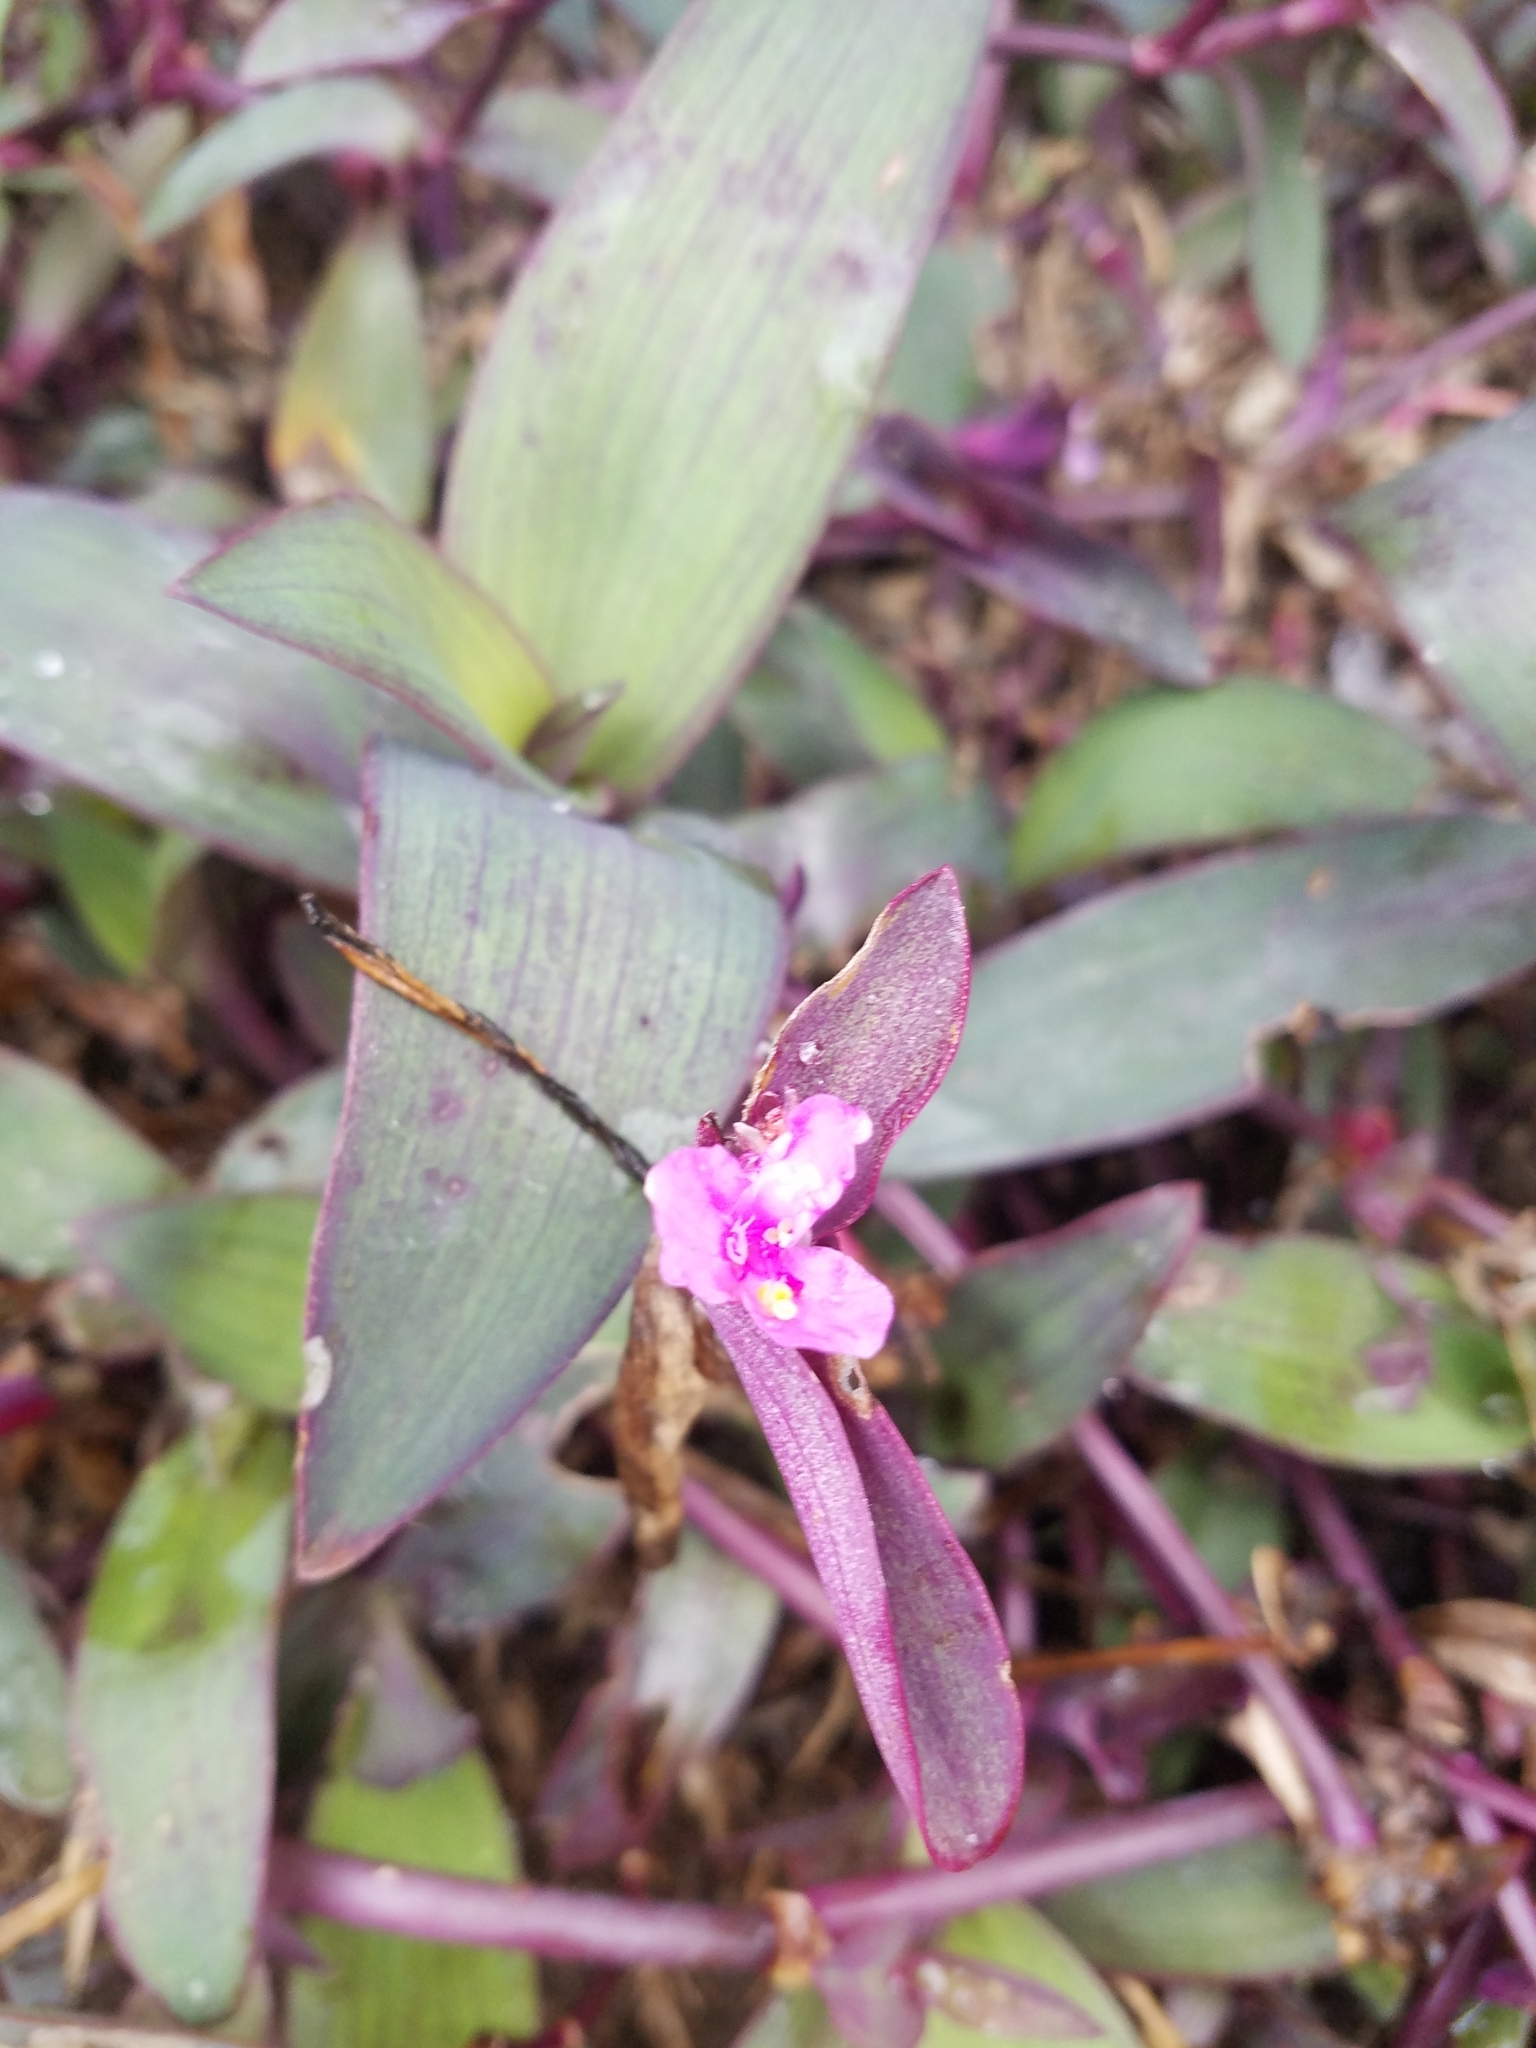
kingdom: Plantae
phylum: Tracheophyta
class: Liliopsida
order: Commelinales
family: Commelinaceae
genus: Tradescantia
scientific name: Tradescantia pallida
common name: Purpleheart
